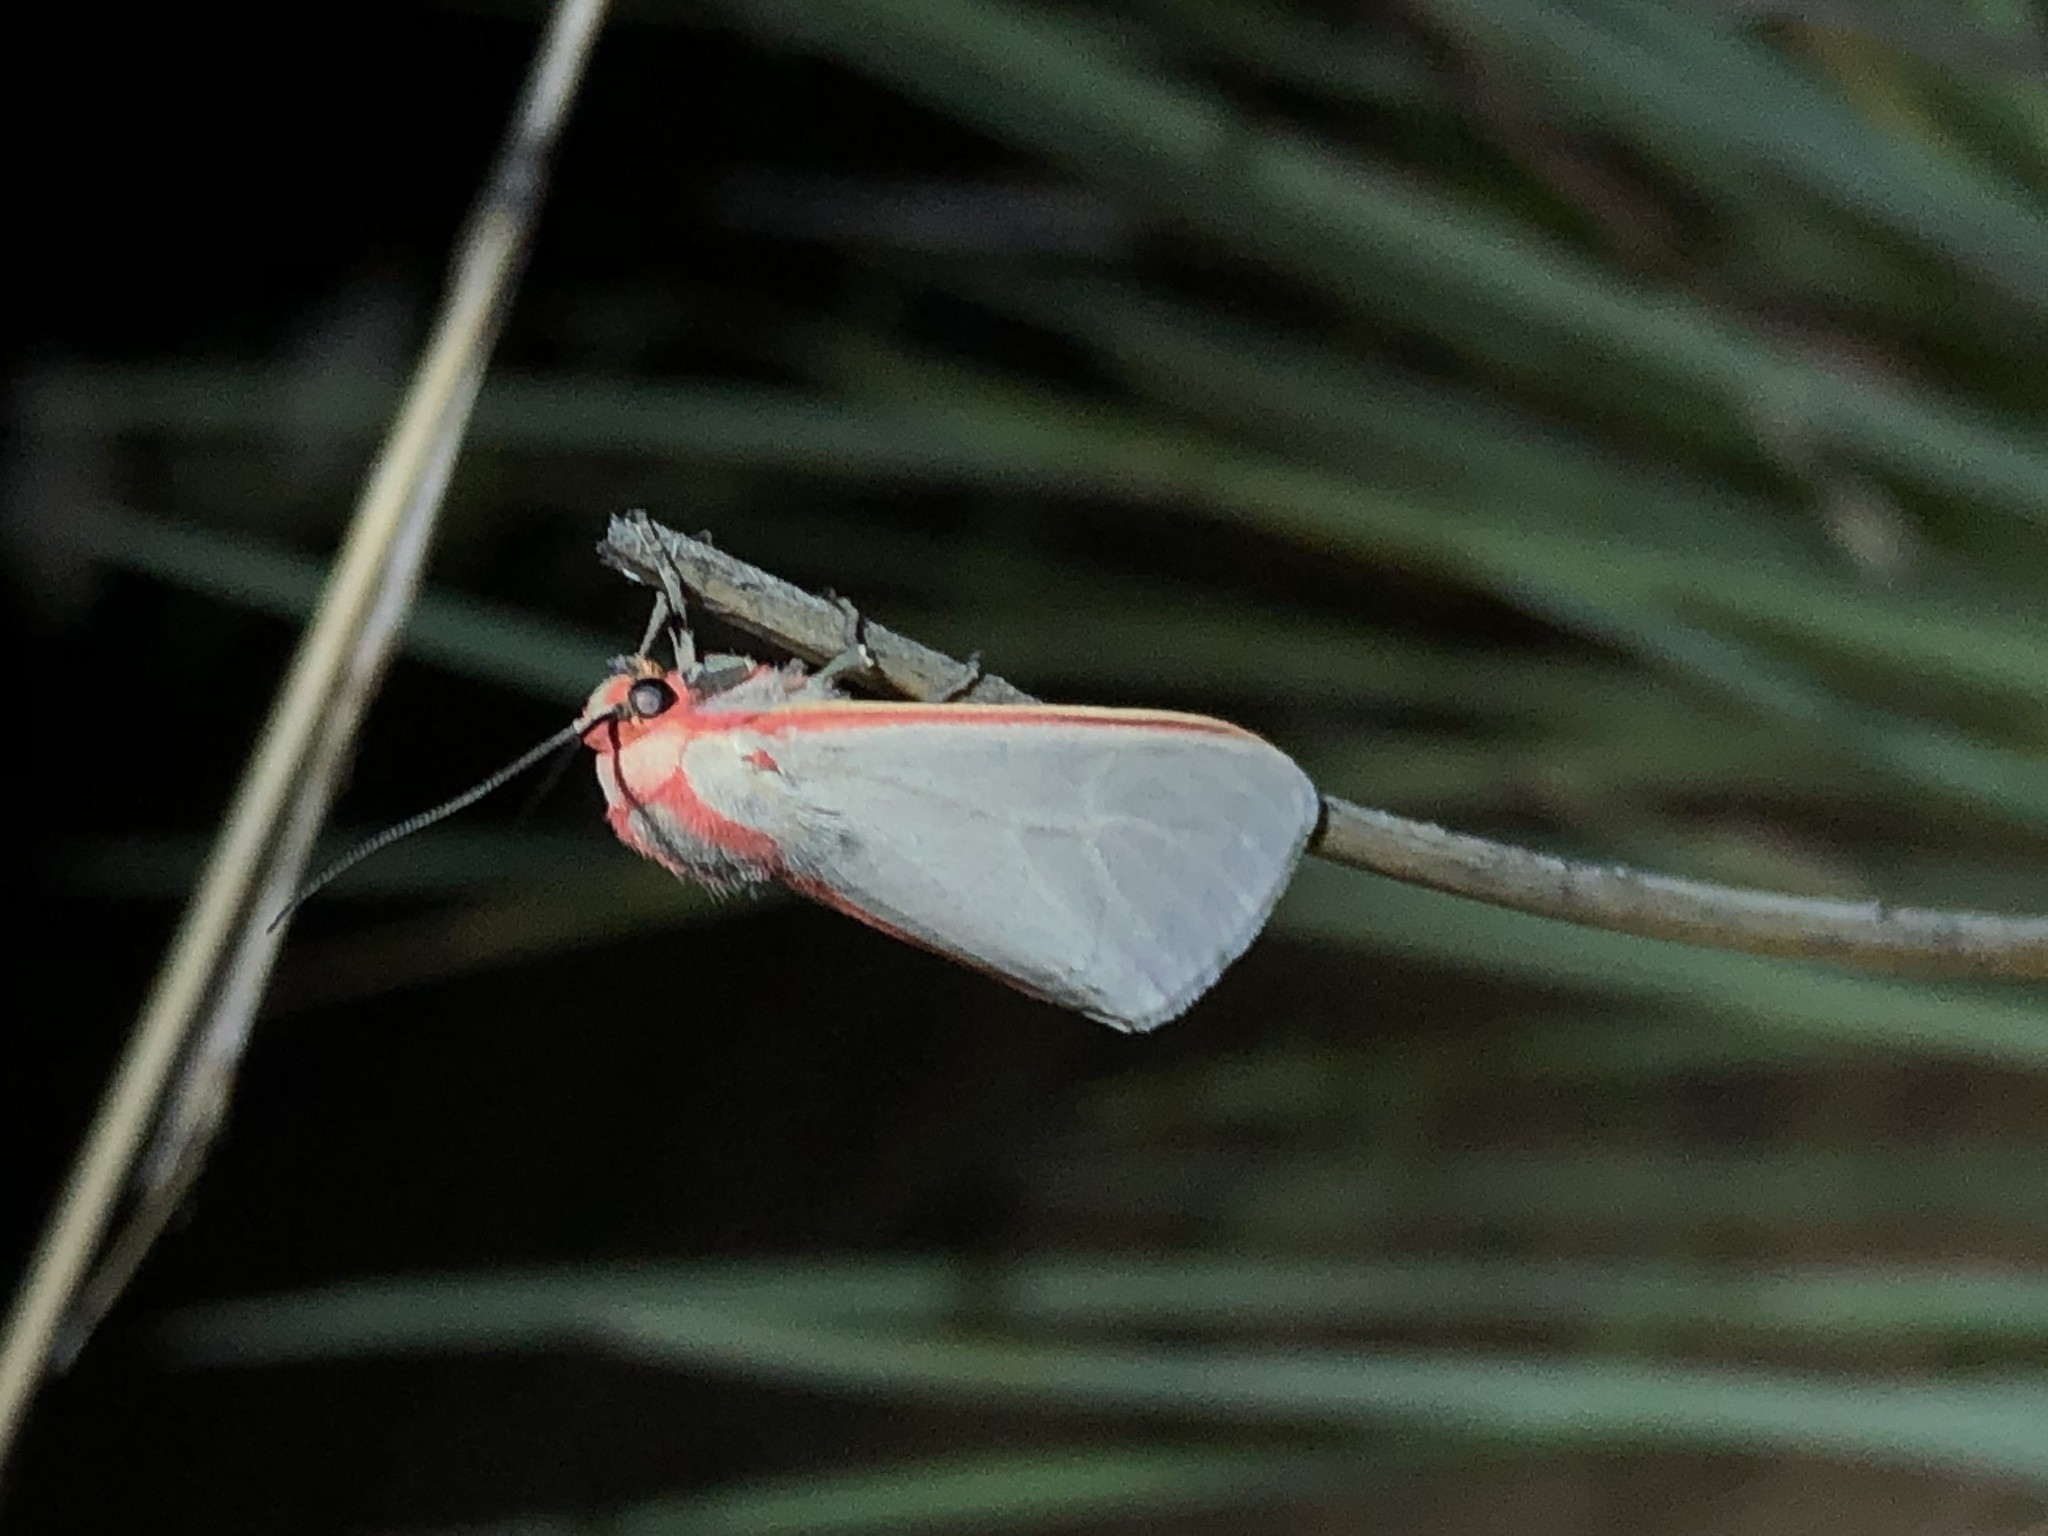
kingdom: Animalia
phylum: Arthropoda
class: Insecta
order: Lepidoptera
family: Erebidae
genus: Pygarctia
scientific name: Pygarctia spraguei
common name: Sprague's pygarctica
